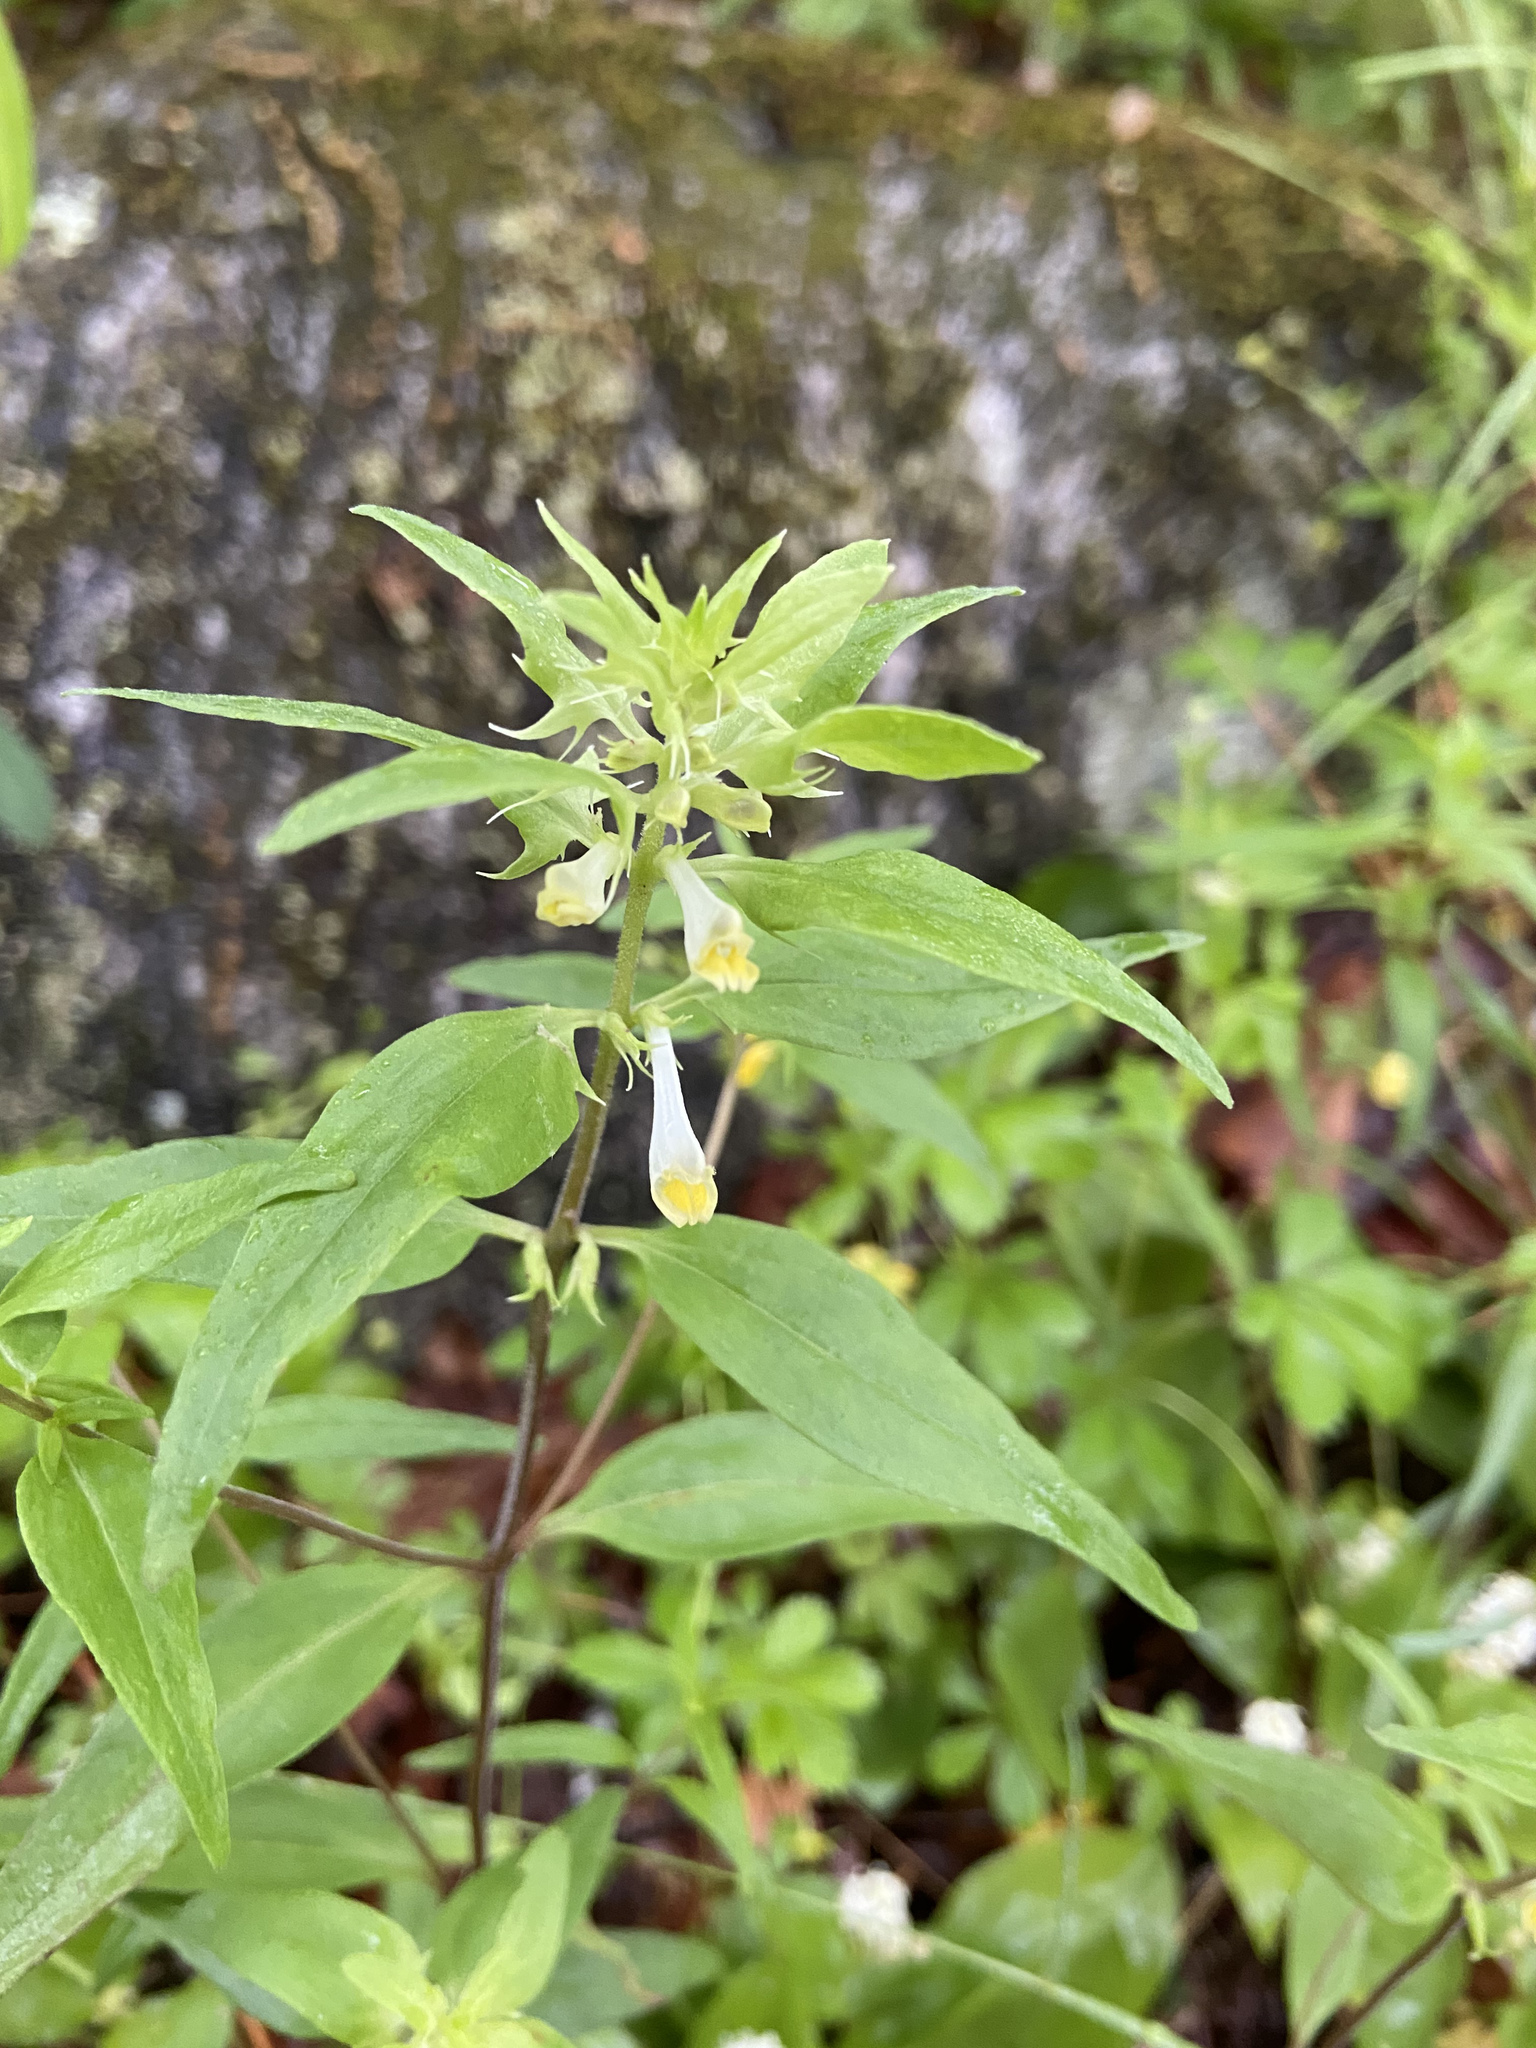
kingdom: Plantae
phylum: Tracheophyta
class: Magnoliopsida
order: Lamiales
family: Orobanchaceae
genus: Melampyrum
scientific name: Melampyrum lineare
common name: American cow-wheat
